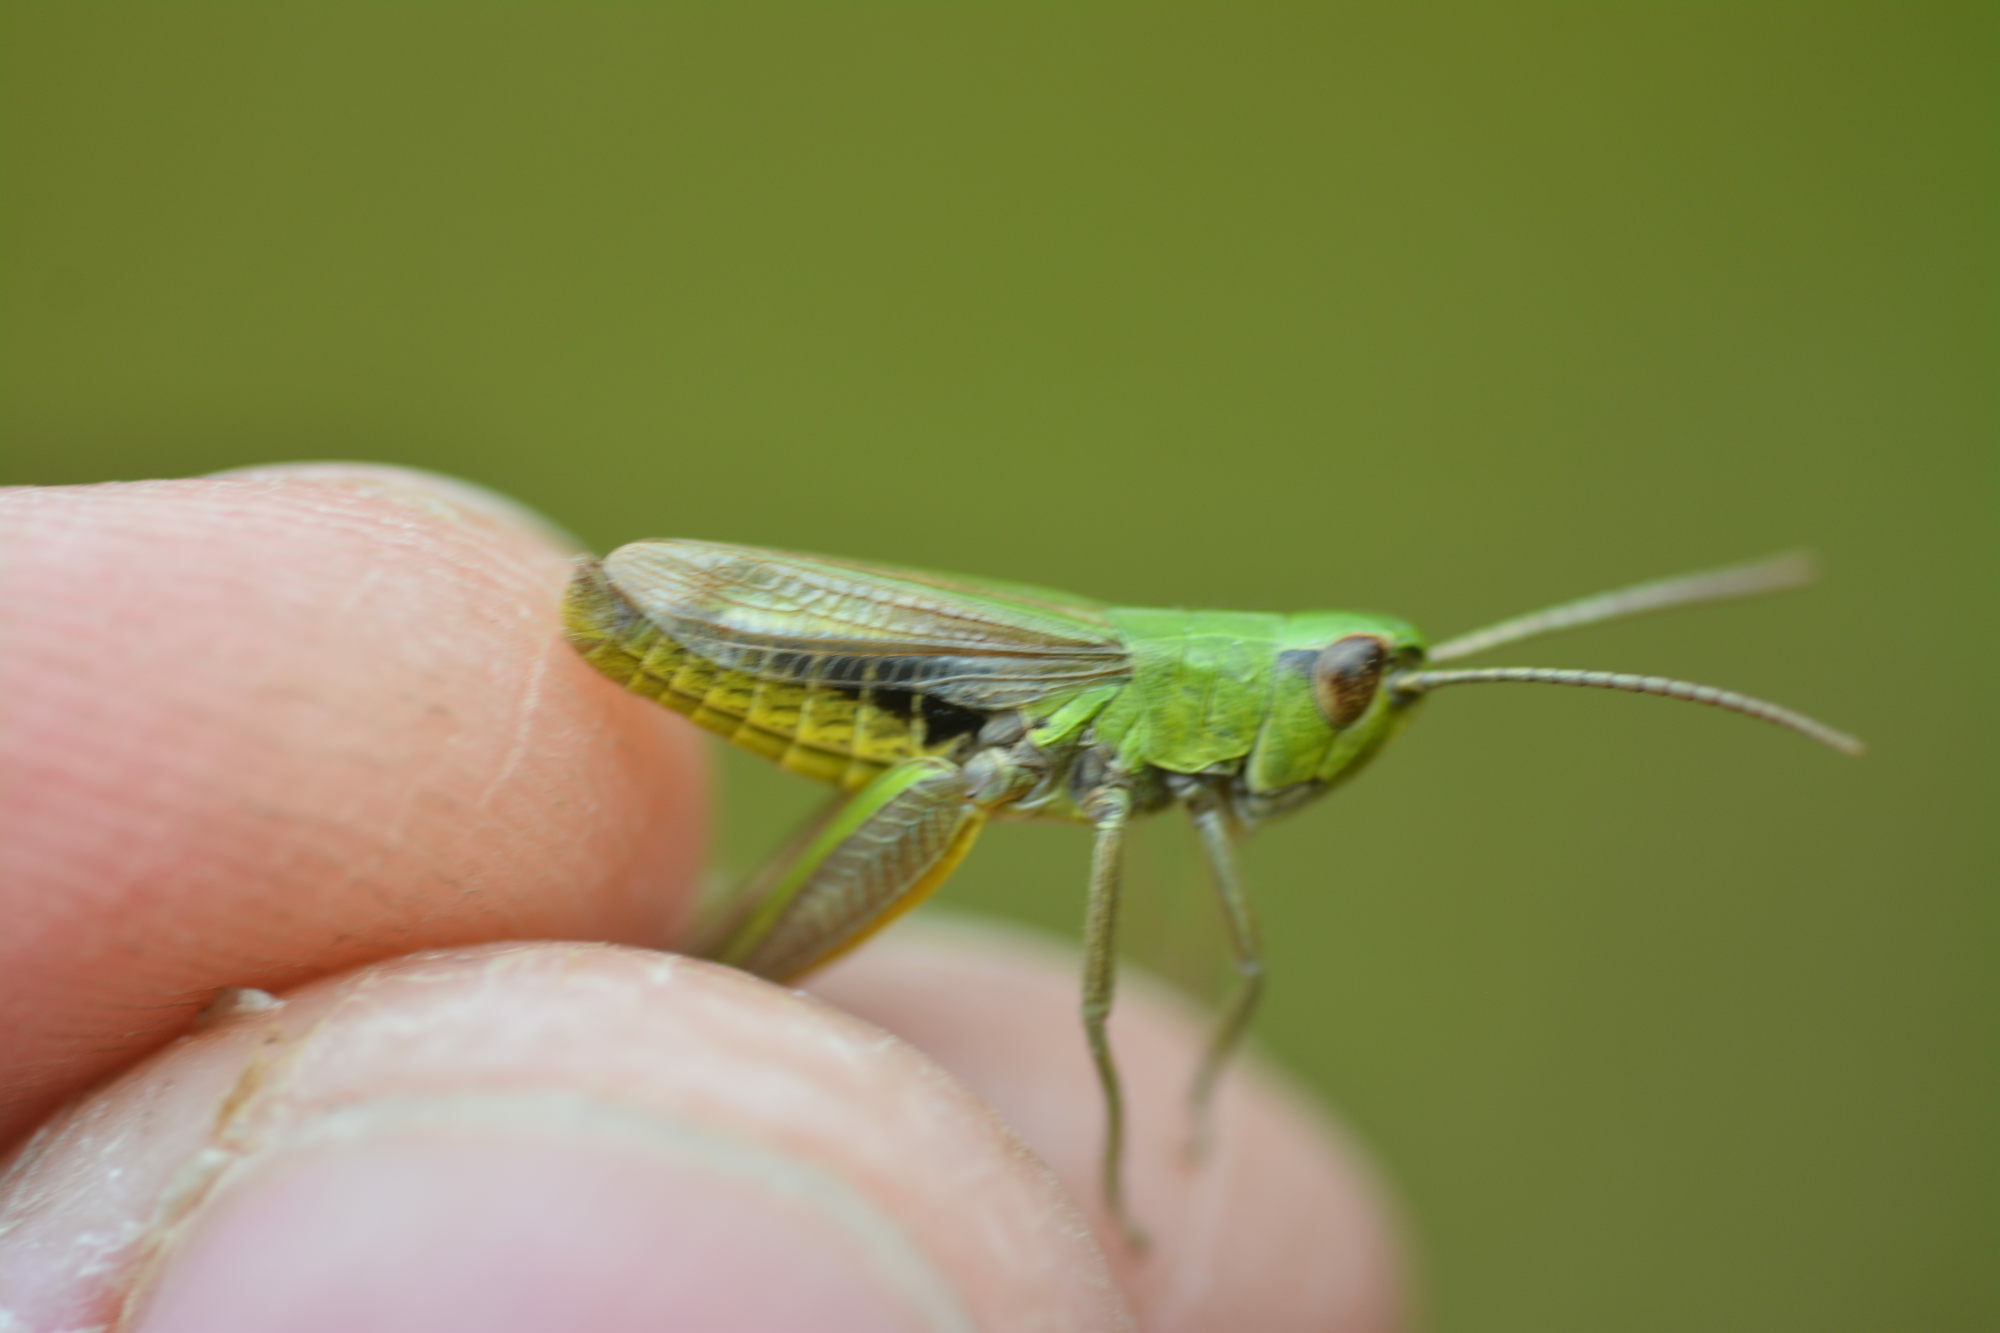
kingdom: Animalia
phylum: Arthropoda
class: Insecta
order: Orthoptera
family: Acrididae
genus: Pseudochorthippus
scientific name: Pseudochorthippus parallelus
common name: Meadow grasshopper
